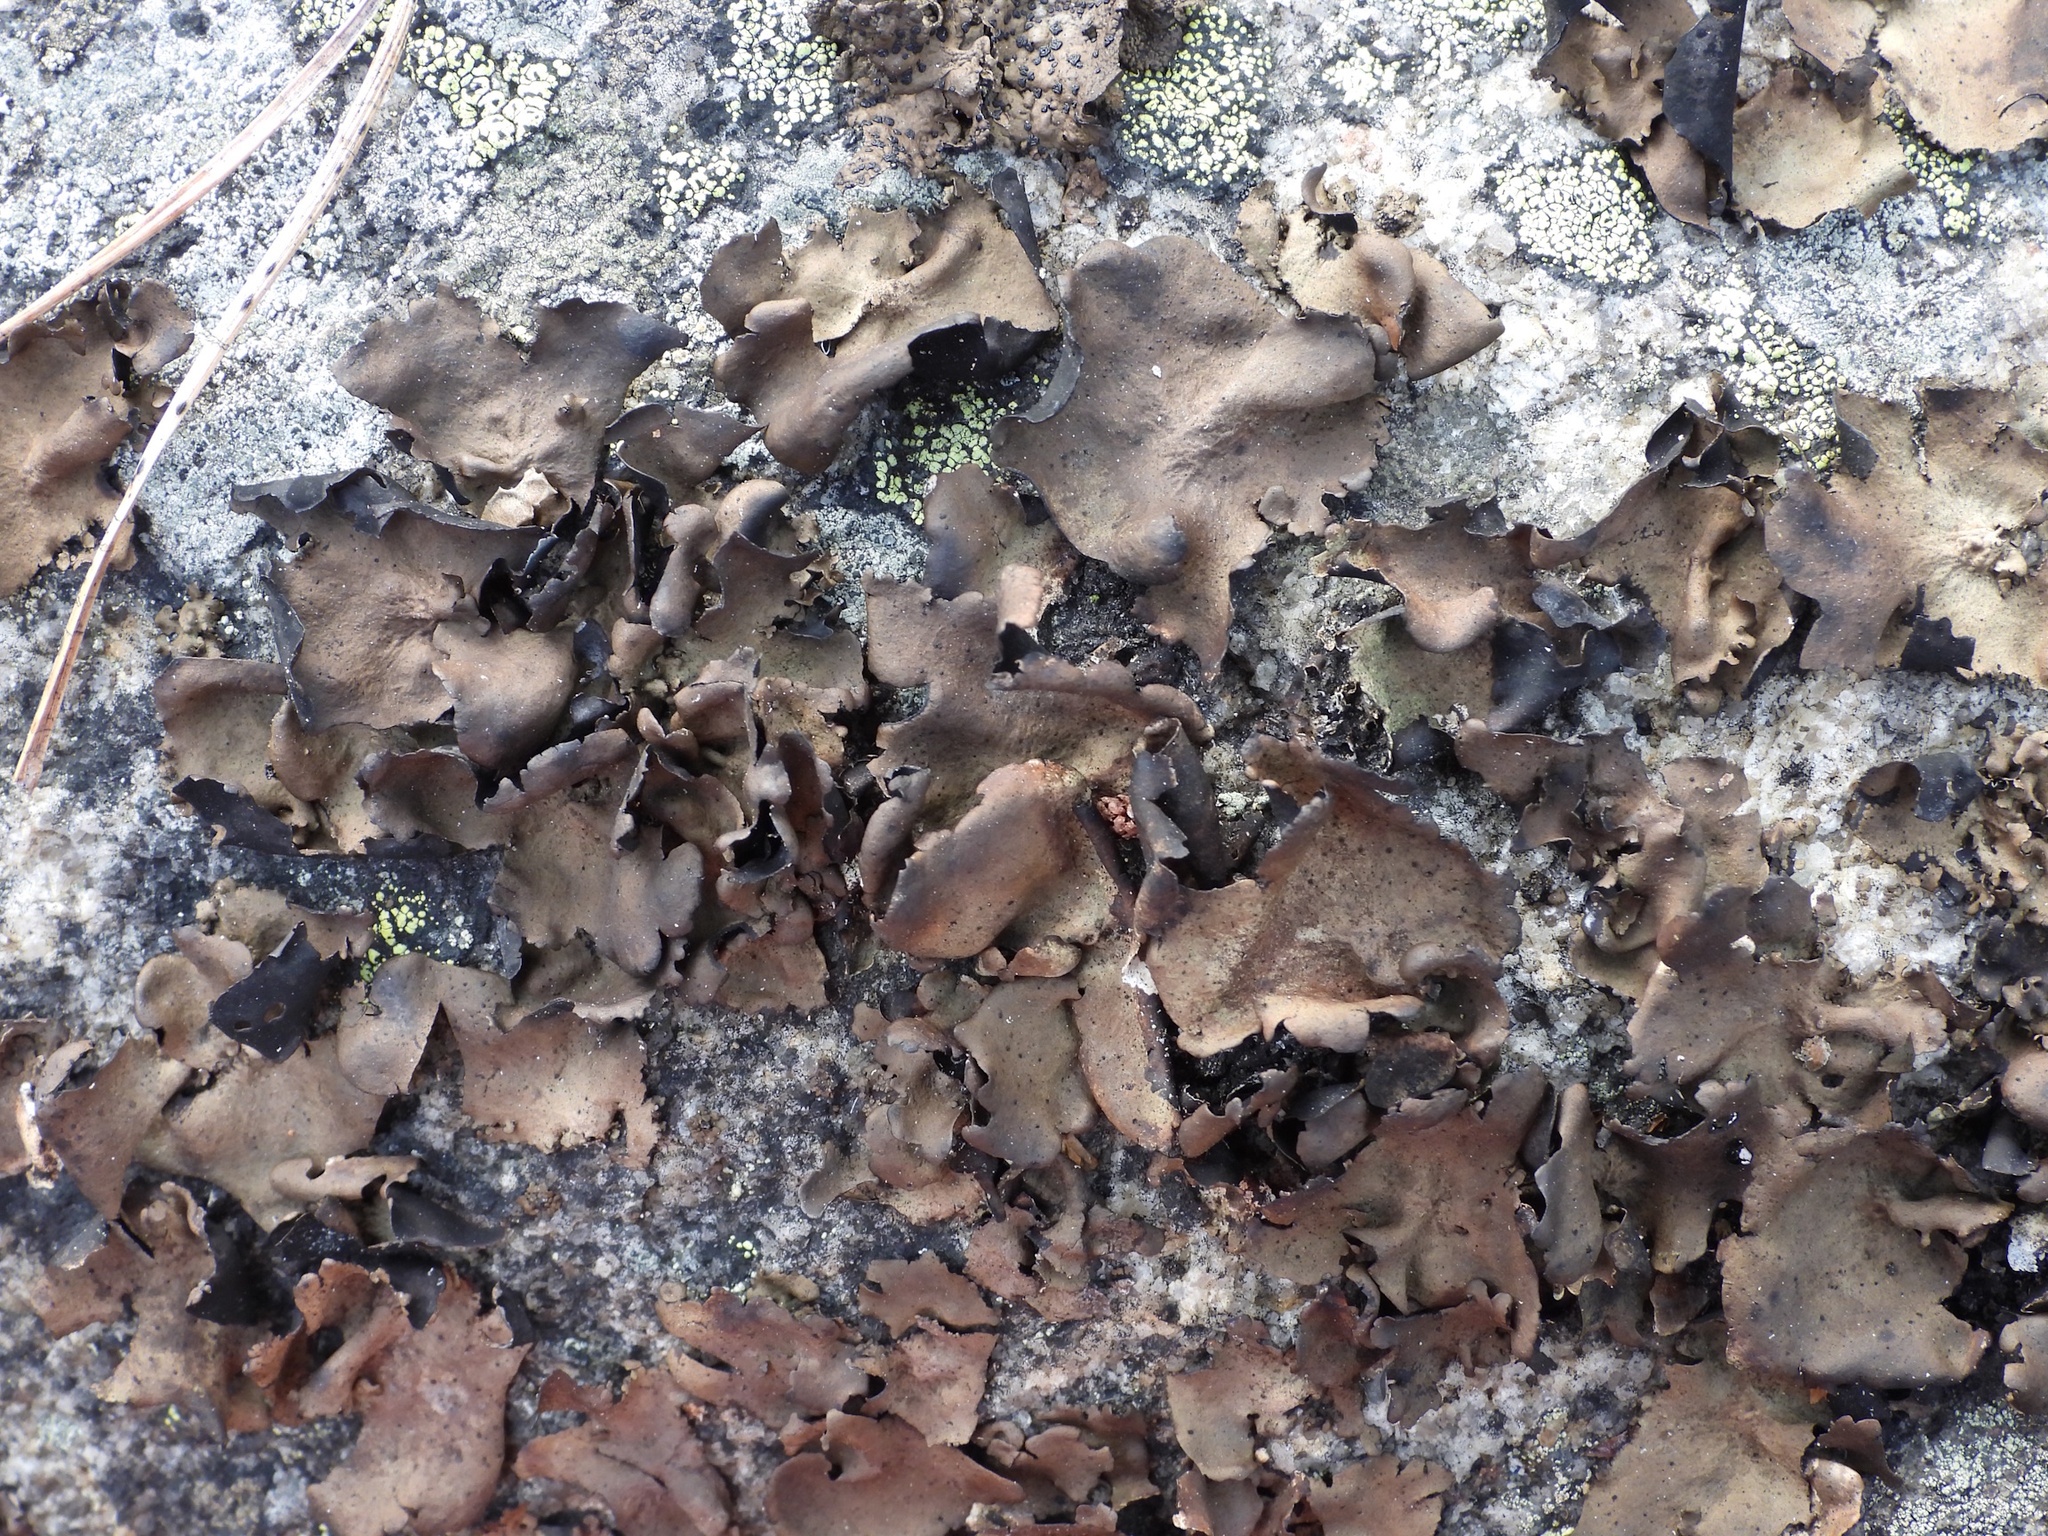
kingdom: Fungi
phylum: Ascomycota
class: Lecanoromycetes
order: Umbilicariales
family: Umbilicariaceae
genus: Umbilicaria
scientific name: Umbilicaria polyphylla
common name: Petalled rocktripe lichen
